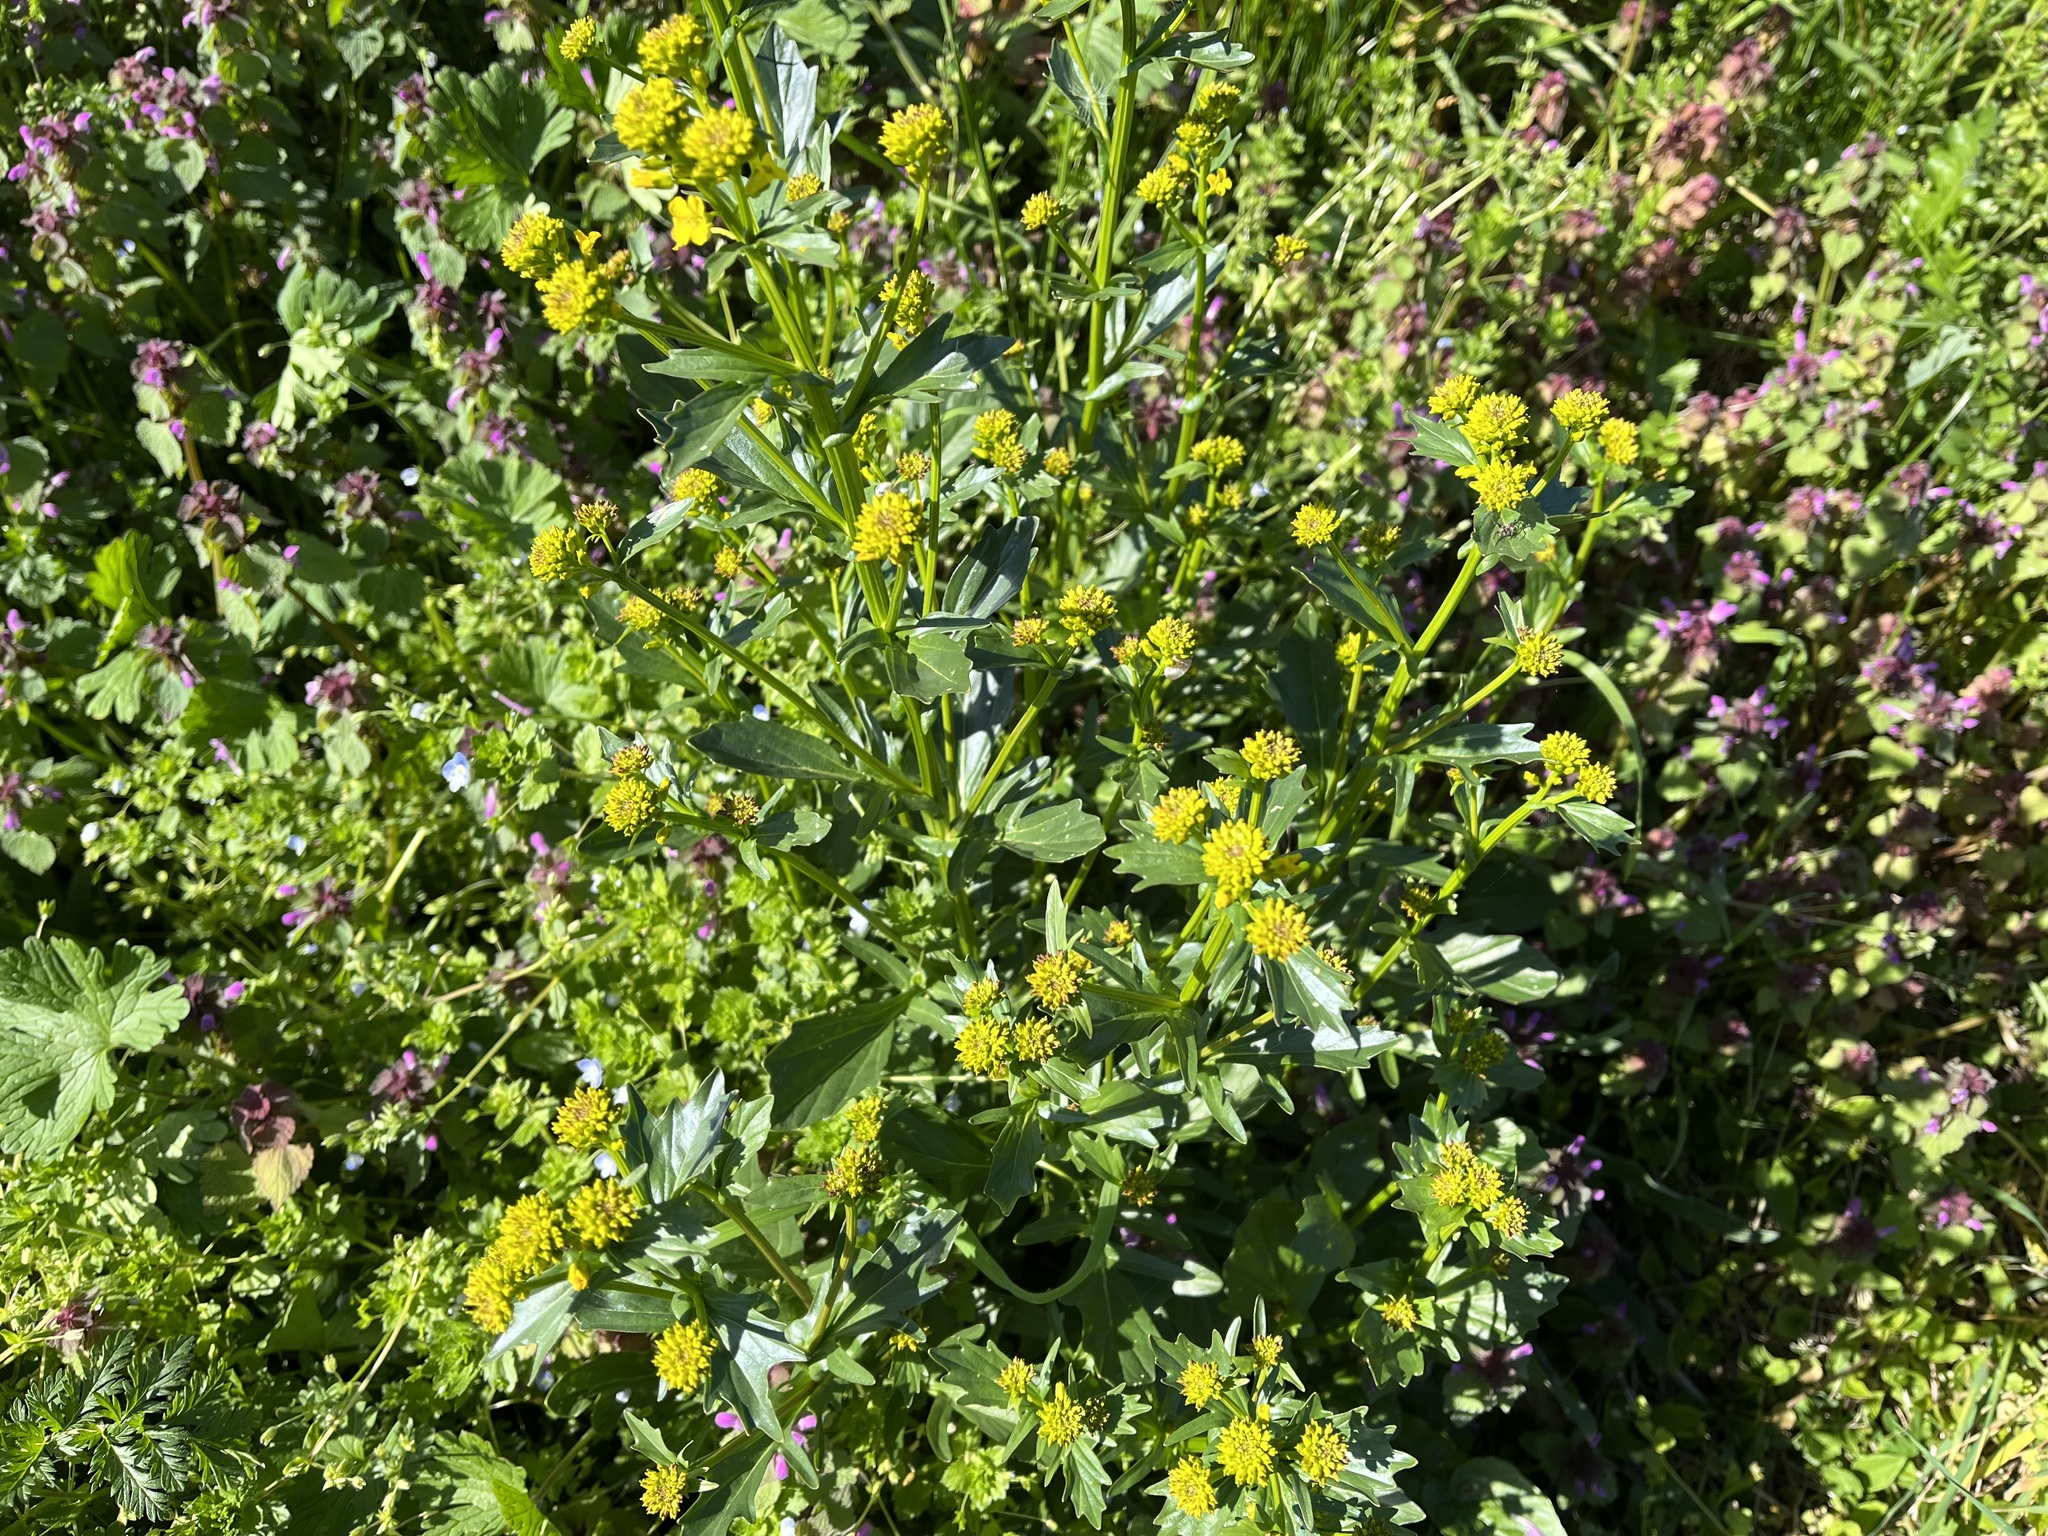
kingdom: Plantae
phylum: Tracheophyta
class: Magnoliopsida
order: Brassicales
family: Brassicaceae
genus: Barbarea
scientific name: Barbarea vulgaris
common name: Cressy-greens
